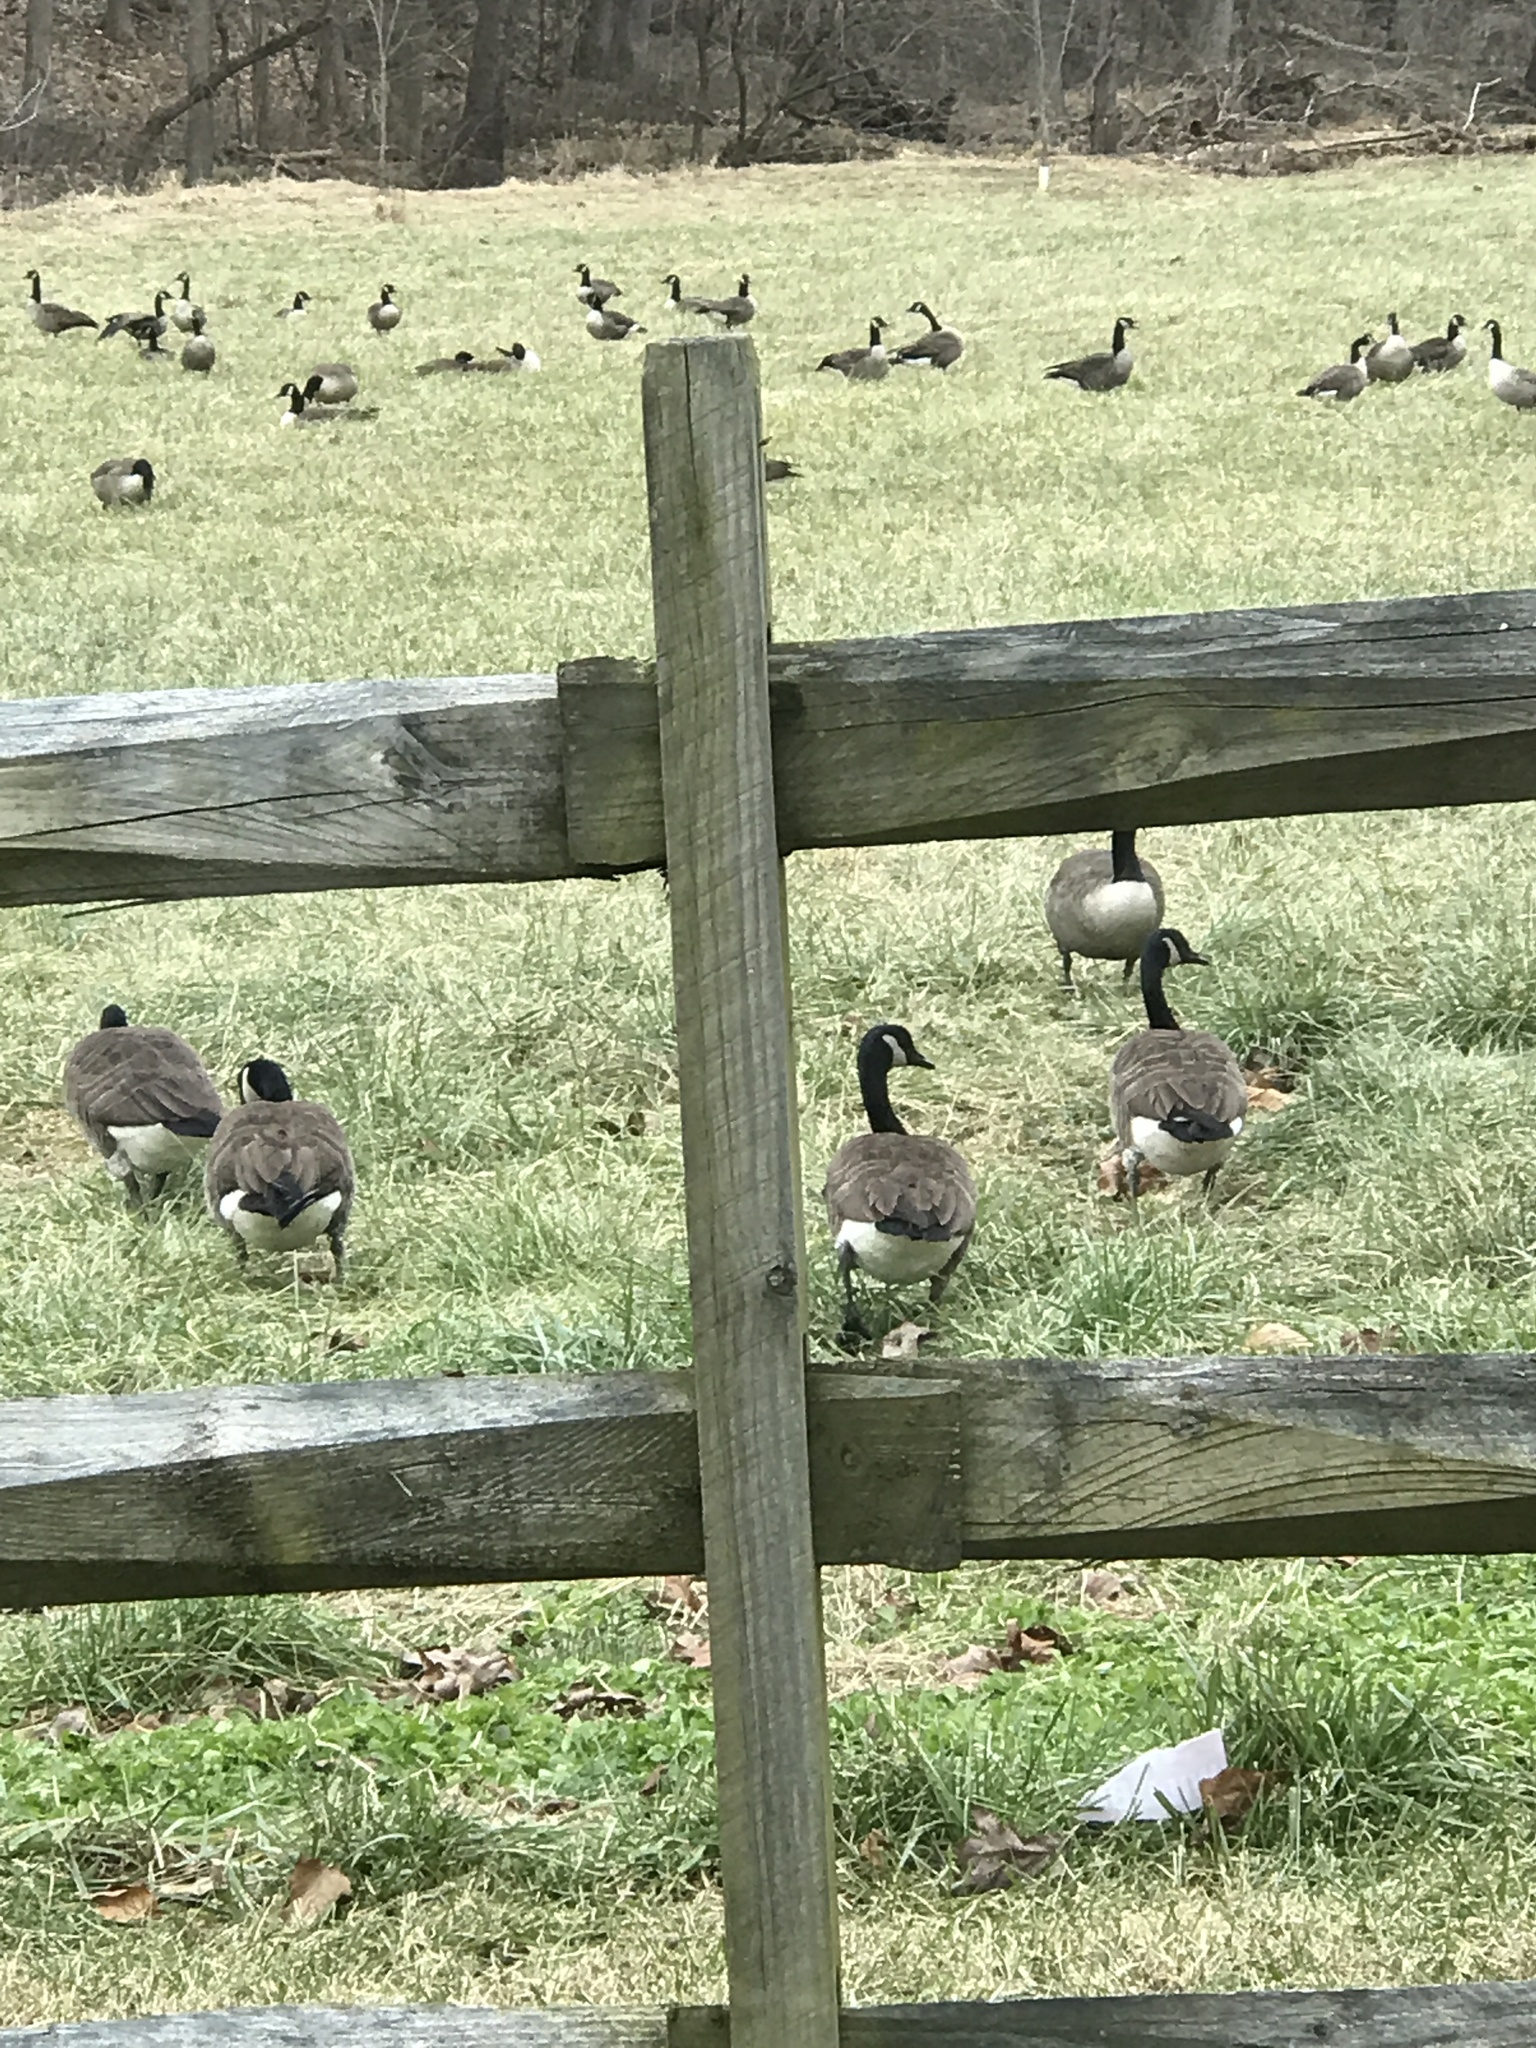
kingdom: Animalia
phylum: Chordata
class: Aves
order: Anseriformes
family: Anatidae
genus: Branta
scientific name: Branta canadensis
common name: Canada goose
